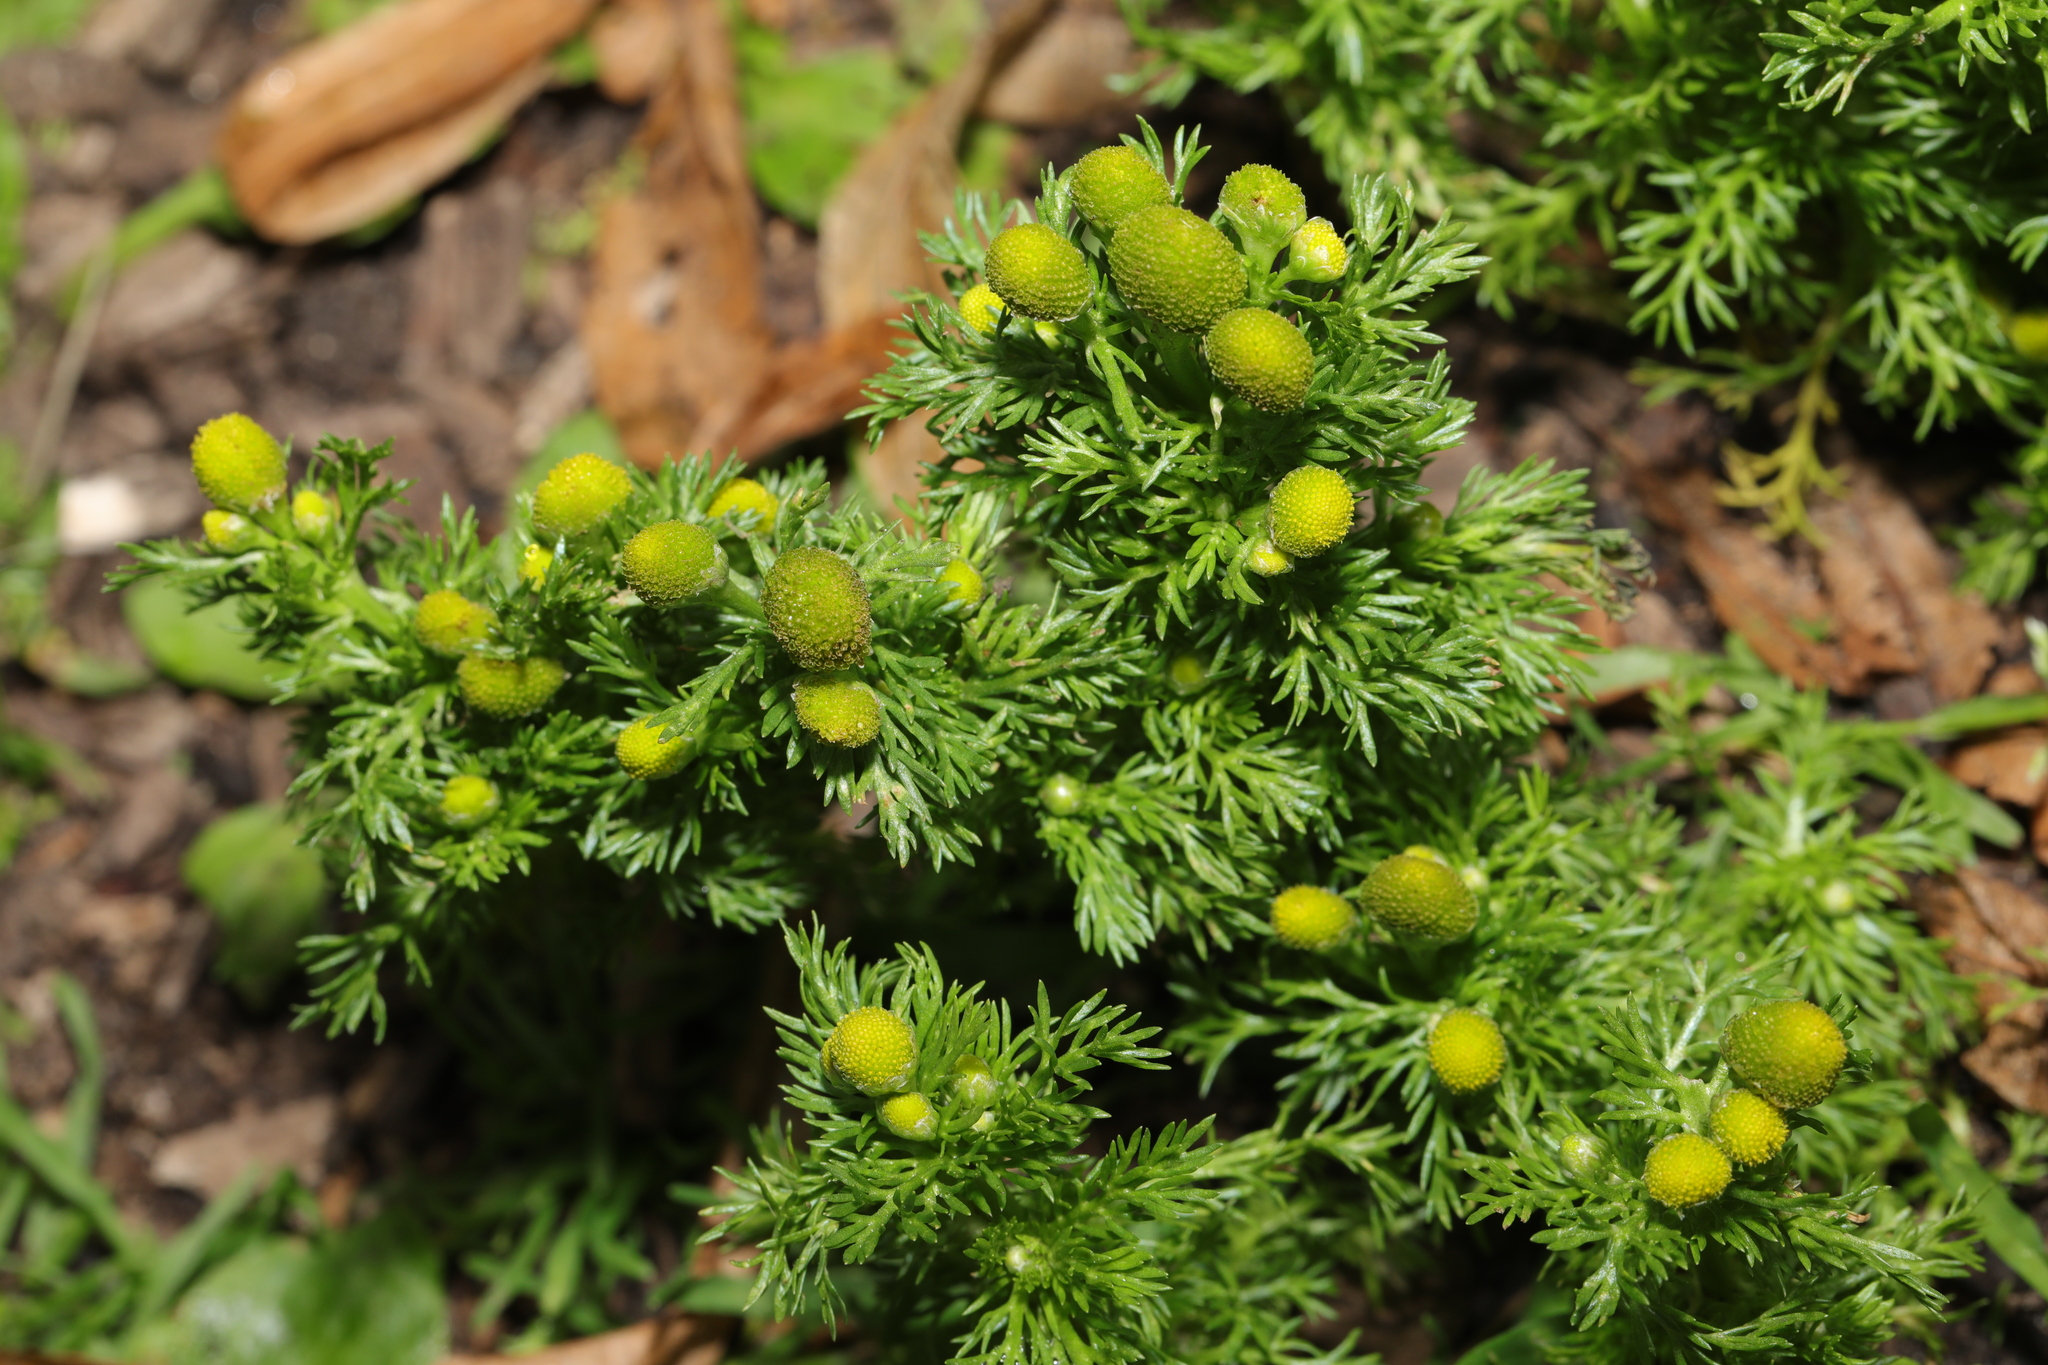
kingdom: Plantae
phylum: Tracheophyta
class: Magnoliopsida
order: Asterales
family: Asteraceae
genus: Matricaria
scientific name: Matricaria discoidea
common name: Disc mayweed
